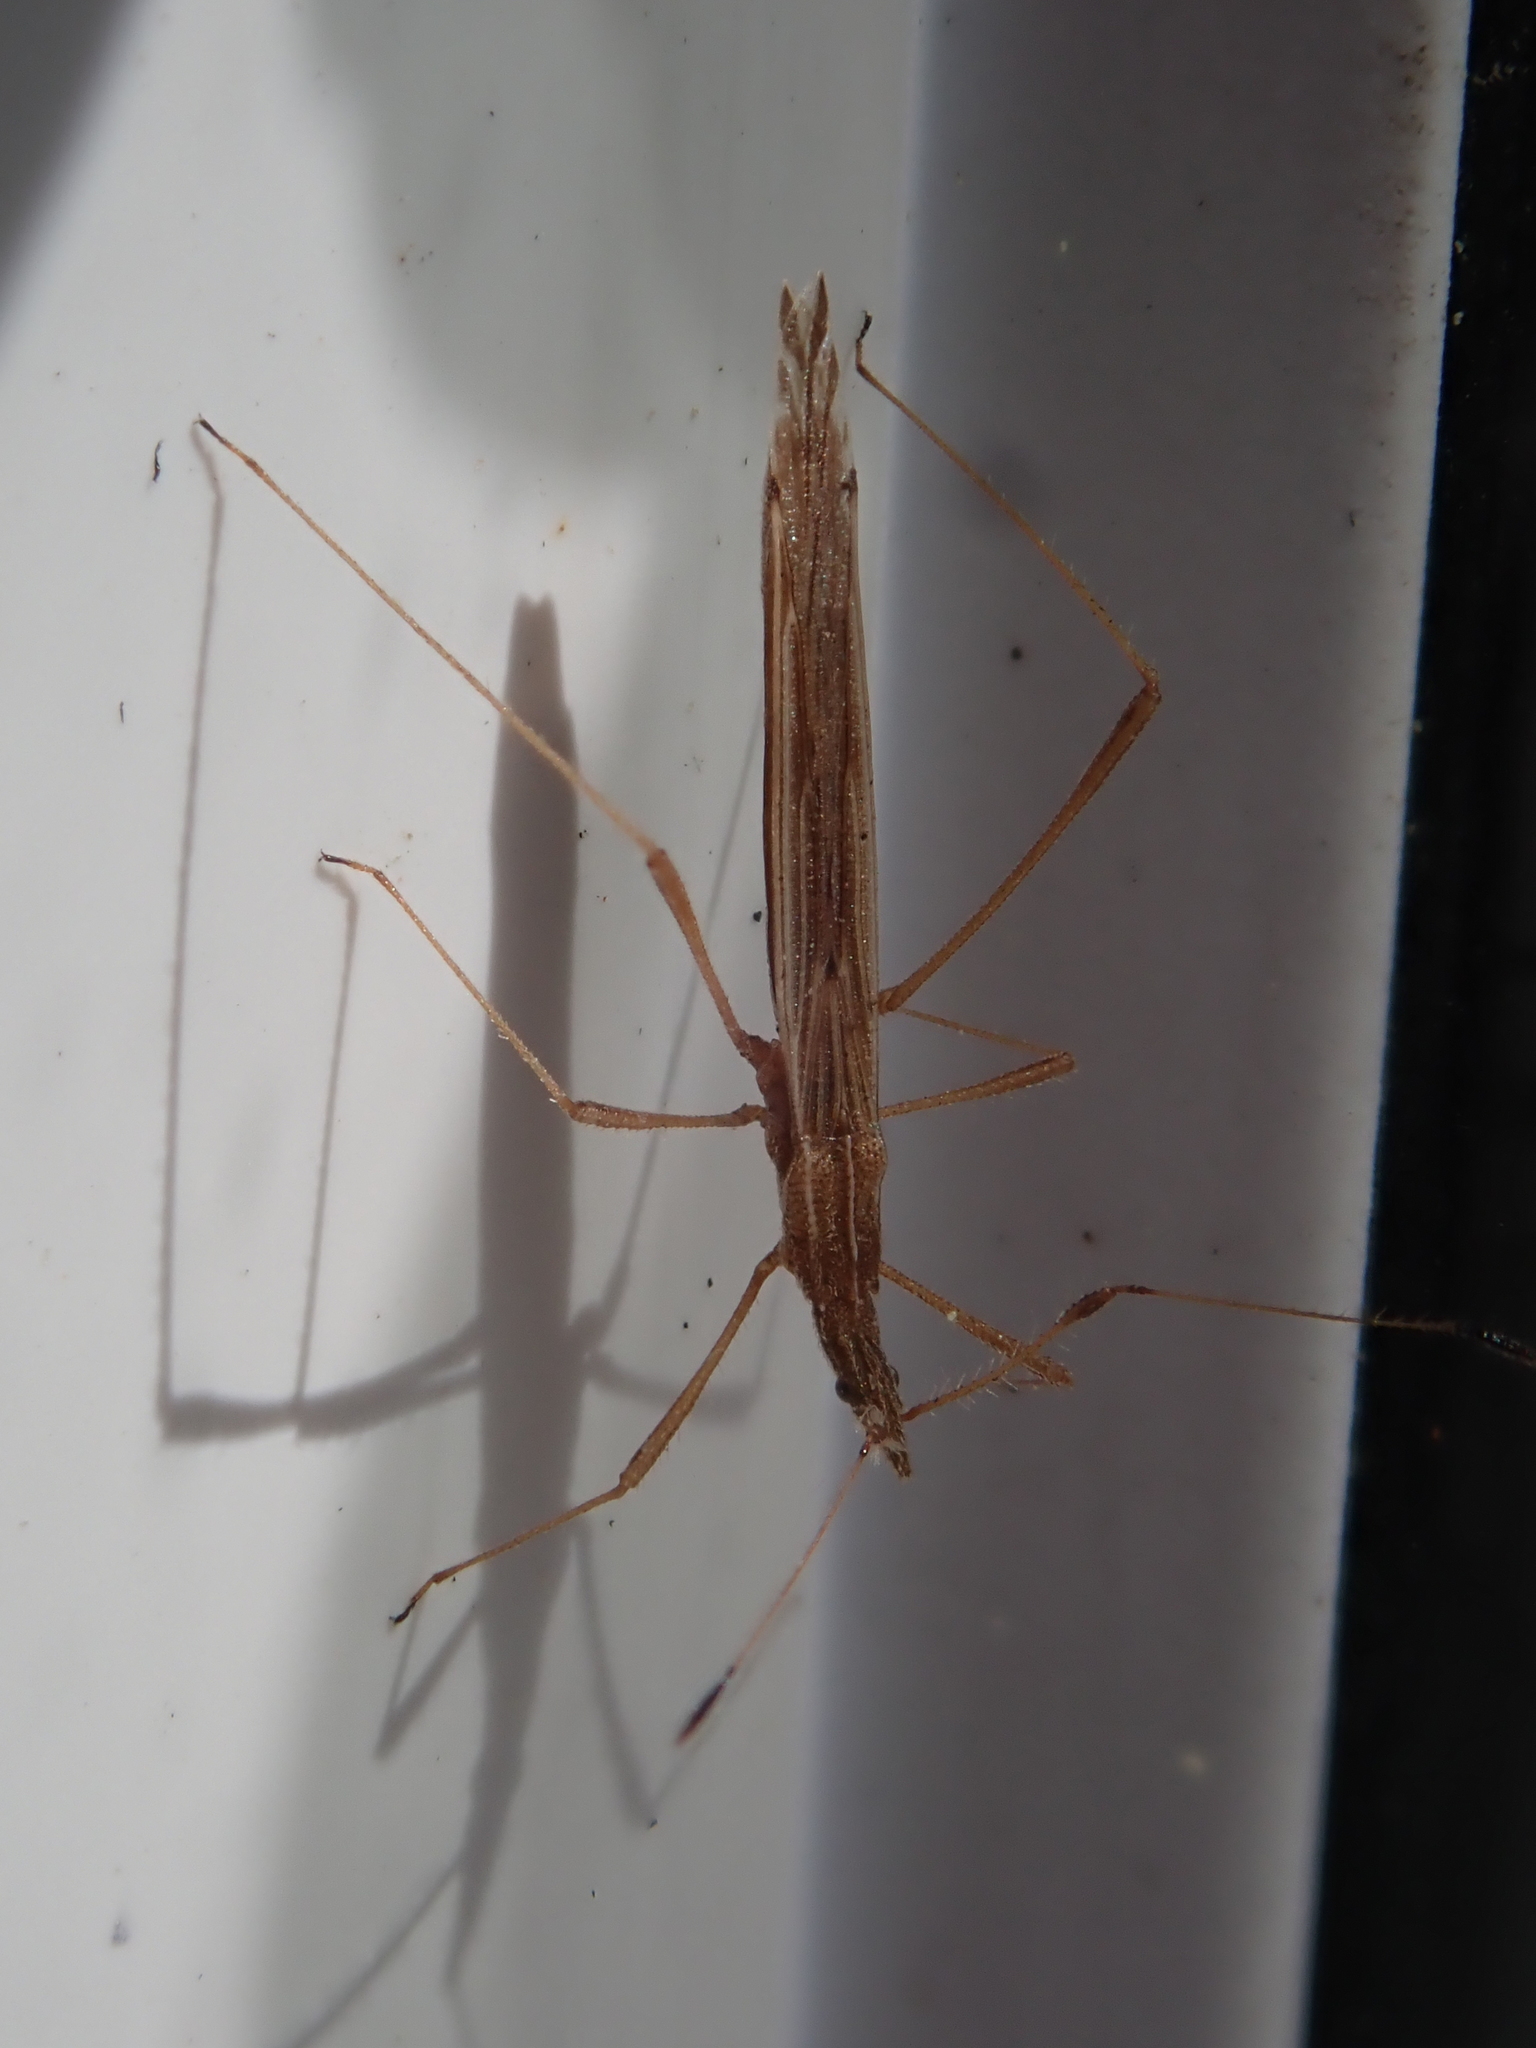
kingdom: Animalia
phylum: Arthropoda
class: Insecta
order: Hemiptera
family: Berytidae
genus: Berytinus
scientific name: Berytinus hirticornis
